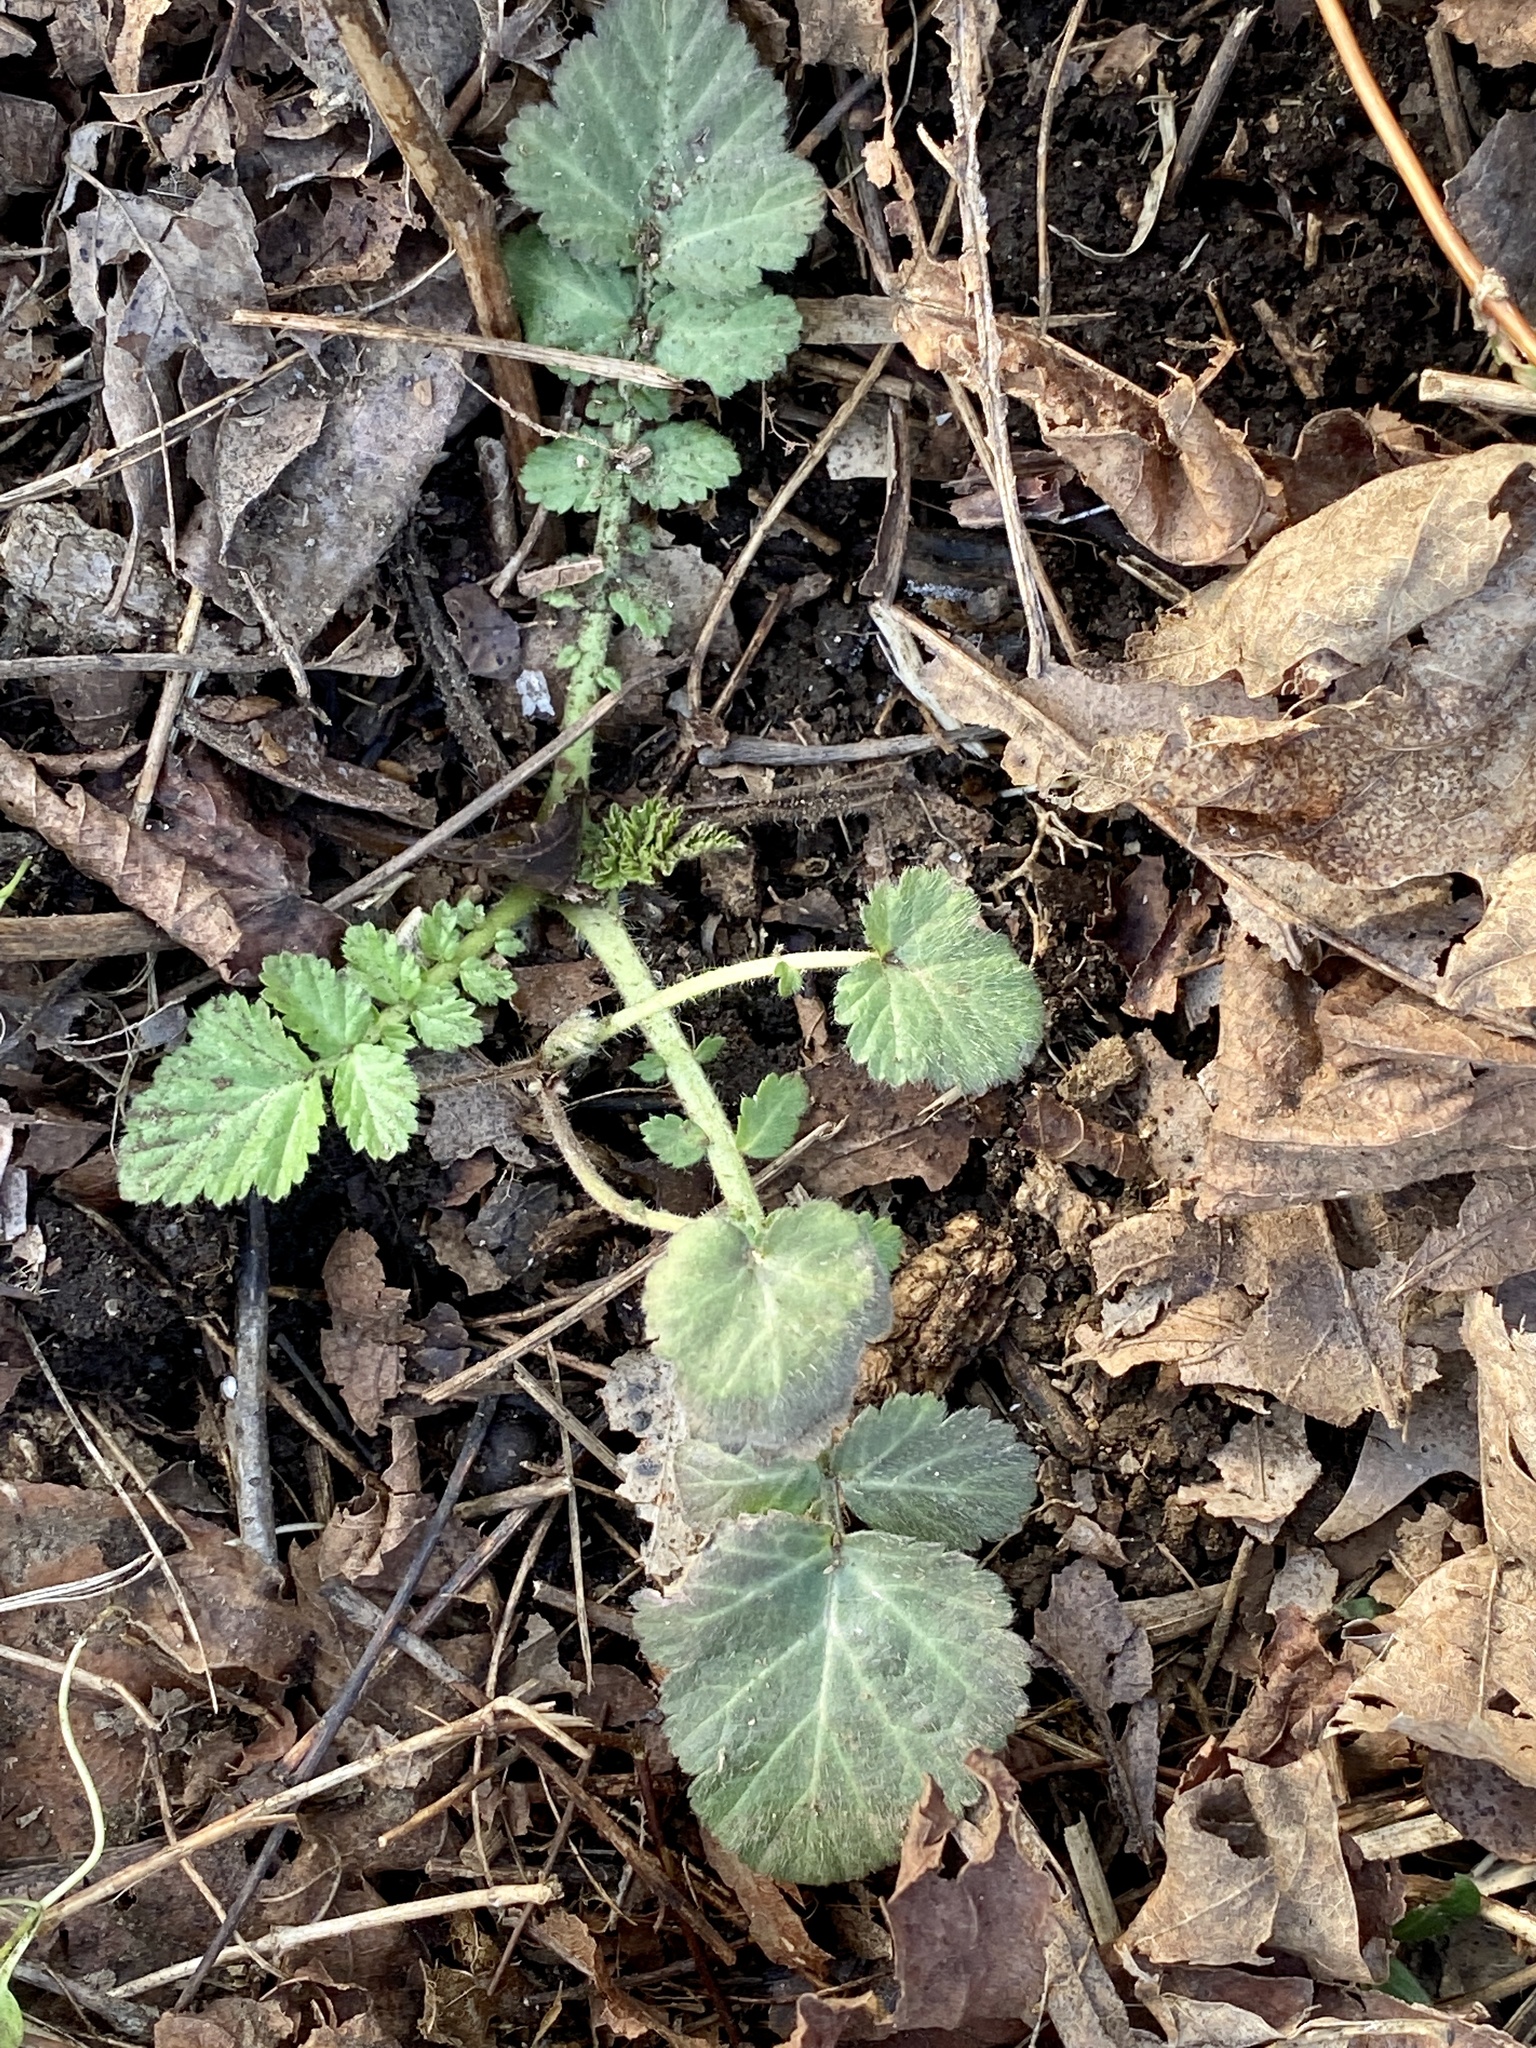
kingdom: Plantae
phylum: Tracheophyta
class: Magnoliopsida
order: Rosales
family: Rosaceae
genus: Geum
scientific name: Geum canadense
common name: White avens
